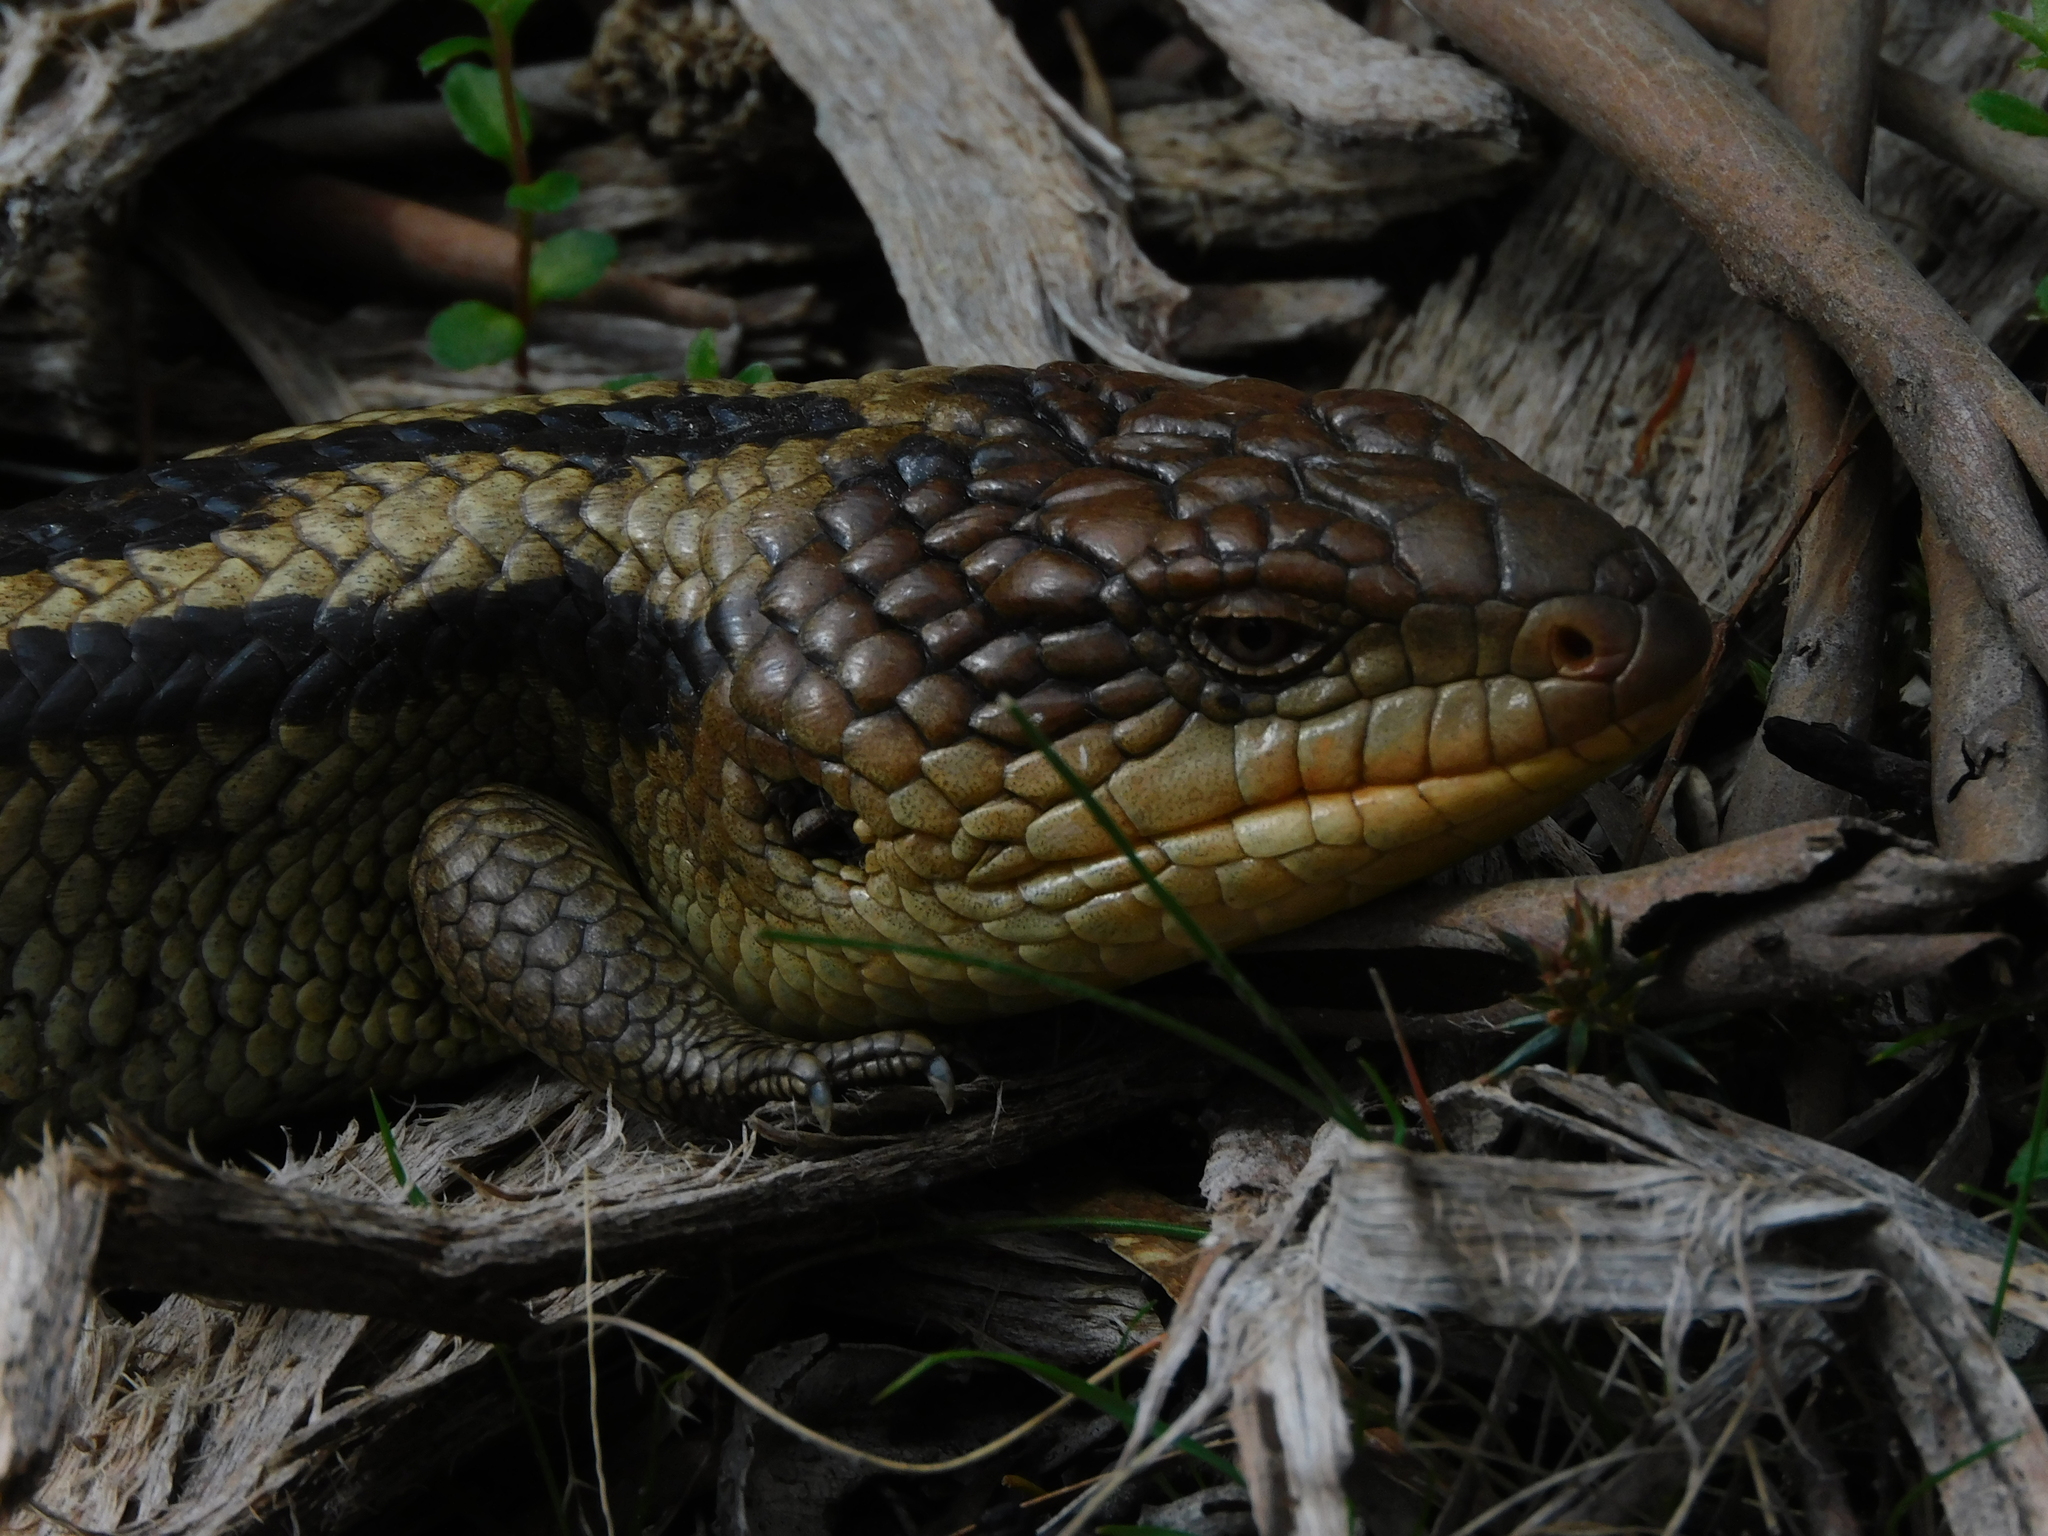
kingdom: Animalia
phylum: Chordata
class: Squamata
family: Scincidae
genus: Tiliqua
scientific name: Tiliqua nigrolutea
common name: Blotched blue-tongued lizard
